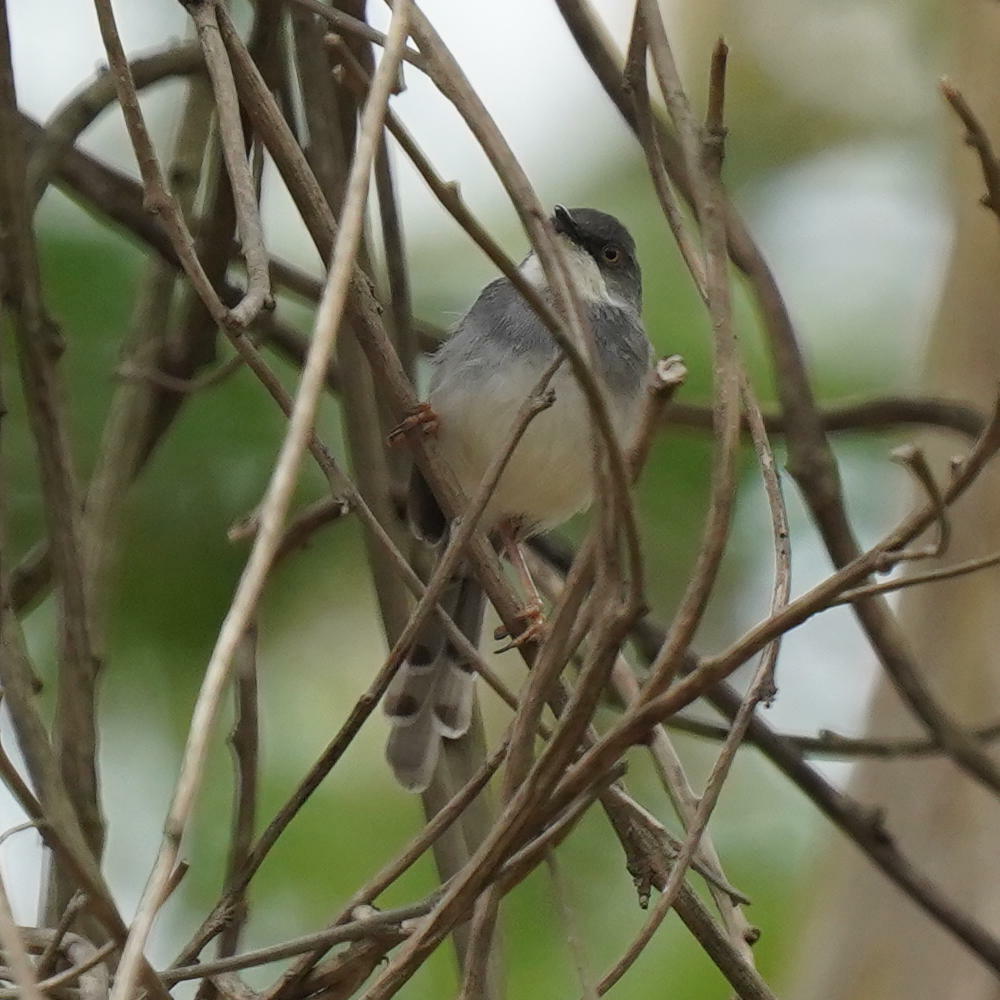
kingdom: Animalia
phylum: Chordata
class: Aves
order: Passeriformes
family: Cisticolidae
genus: Prinia
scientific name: Prinia hodgsonii
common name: Grey-breasted prinia
